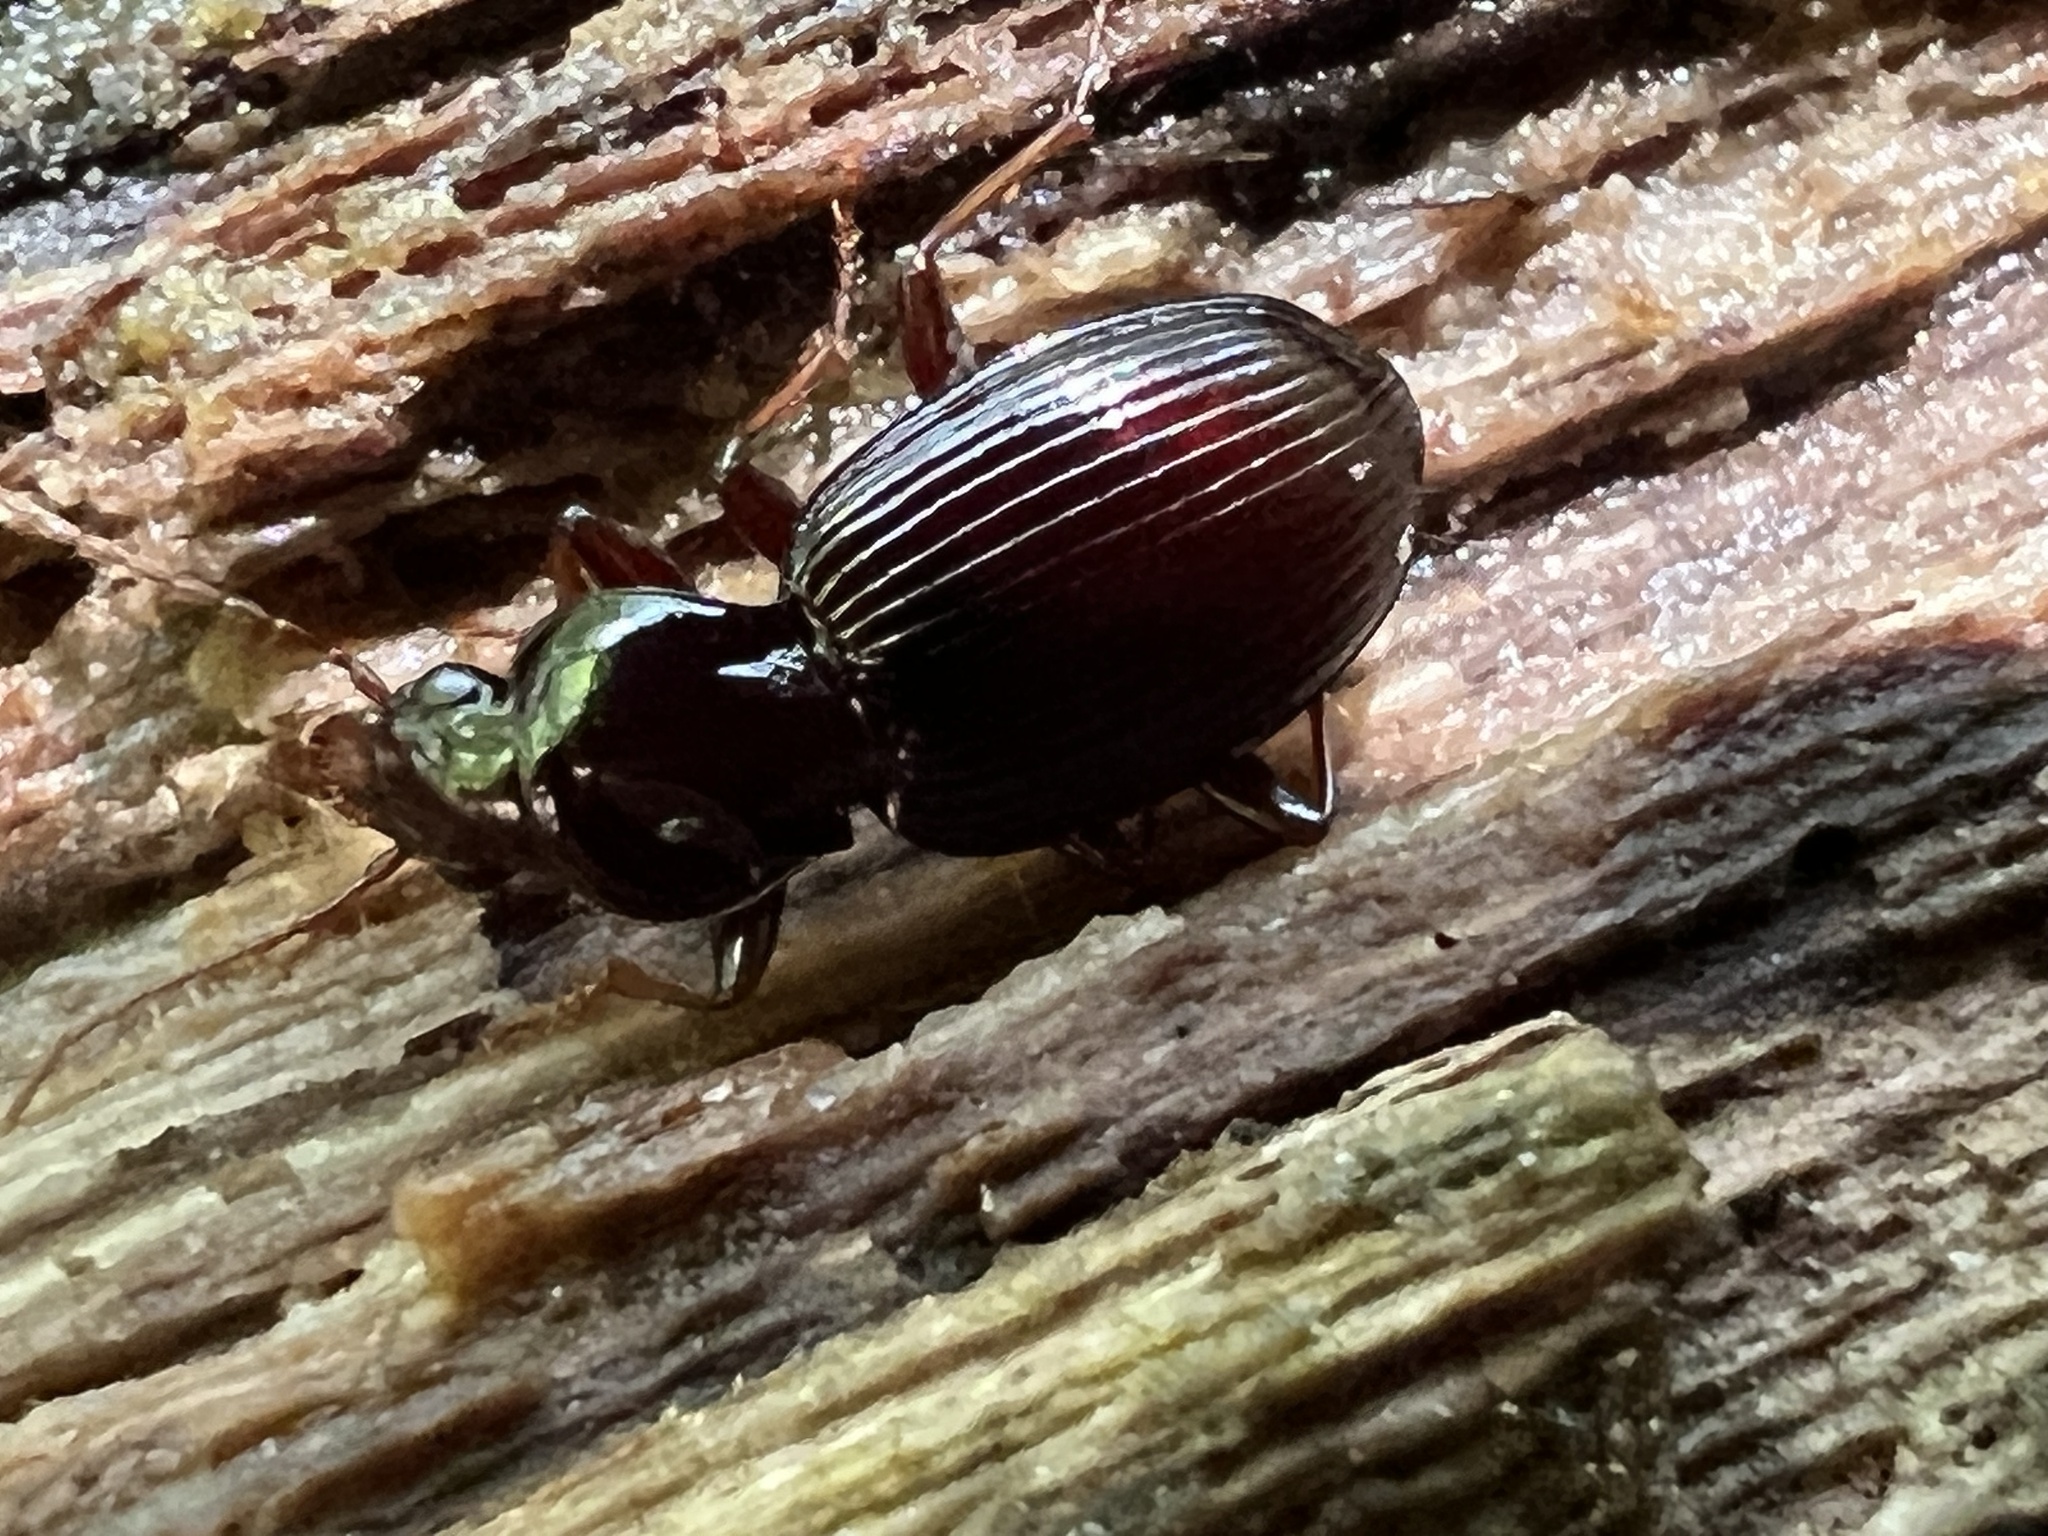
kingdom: Animalia
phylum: Arthropoda
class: Insecta
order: Coleoptera
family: Carabidae
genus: Gastrellarius
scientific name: Gastrellarius honestus
